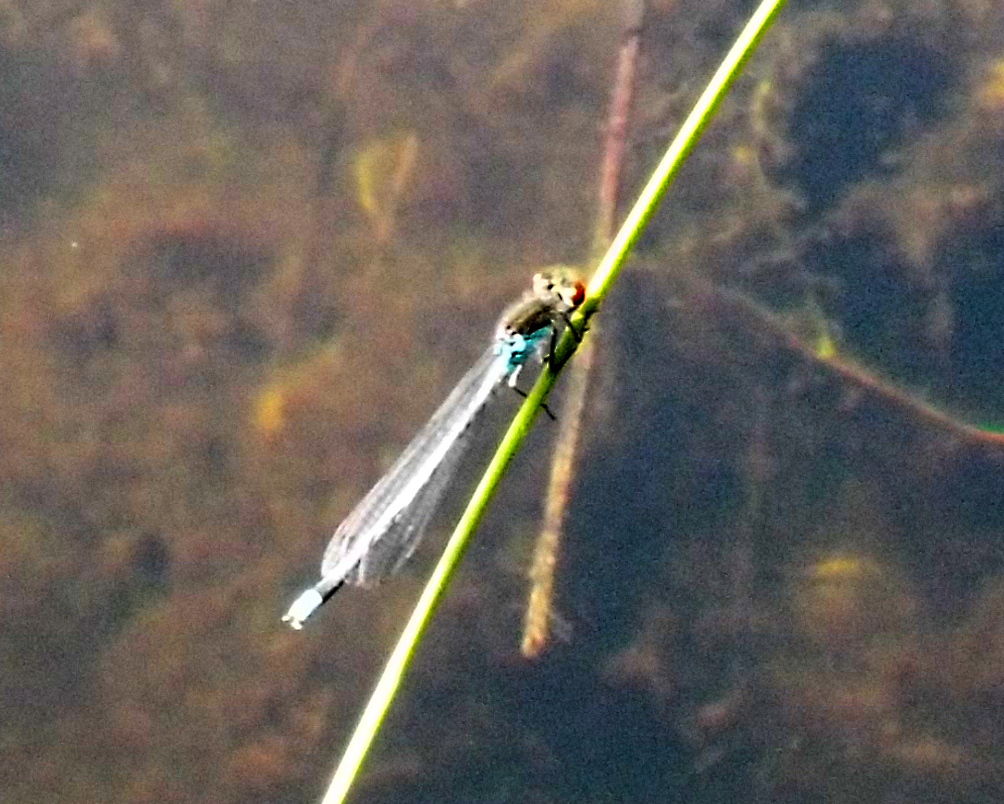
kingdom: Animalia
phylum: Arthropoda
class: Insecta
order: Odonata
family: Coenagrionidae
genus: Erythromma
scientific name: Erythromma najas
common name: Red-eyed damselfly
